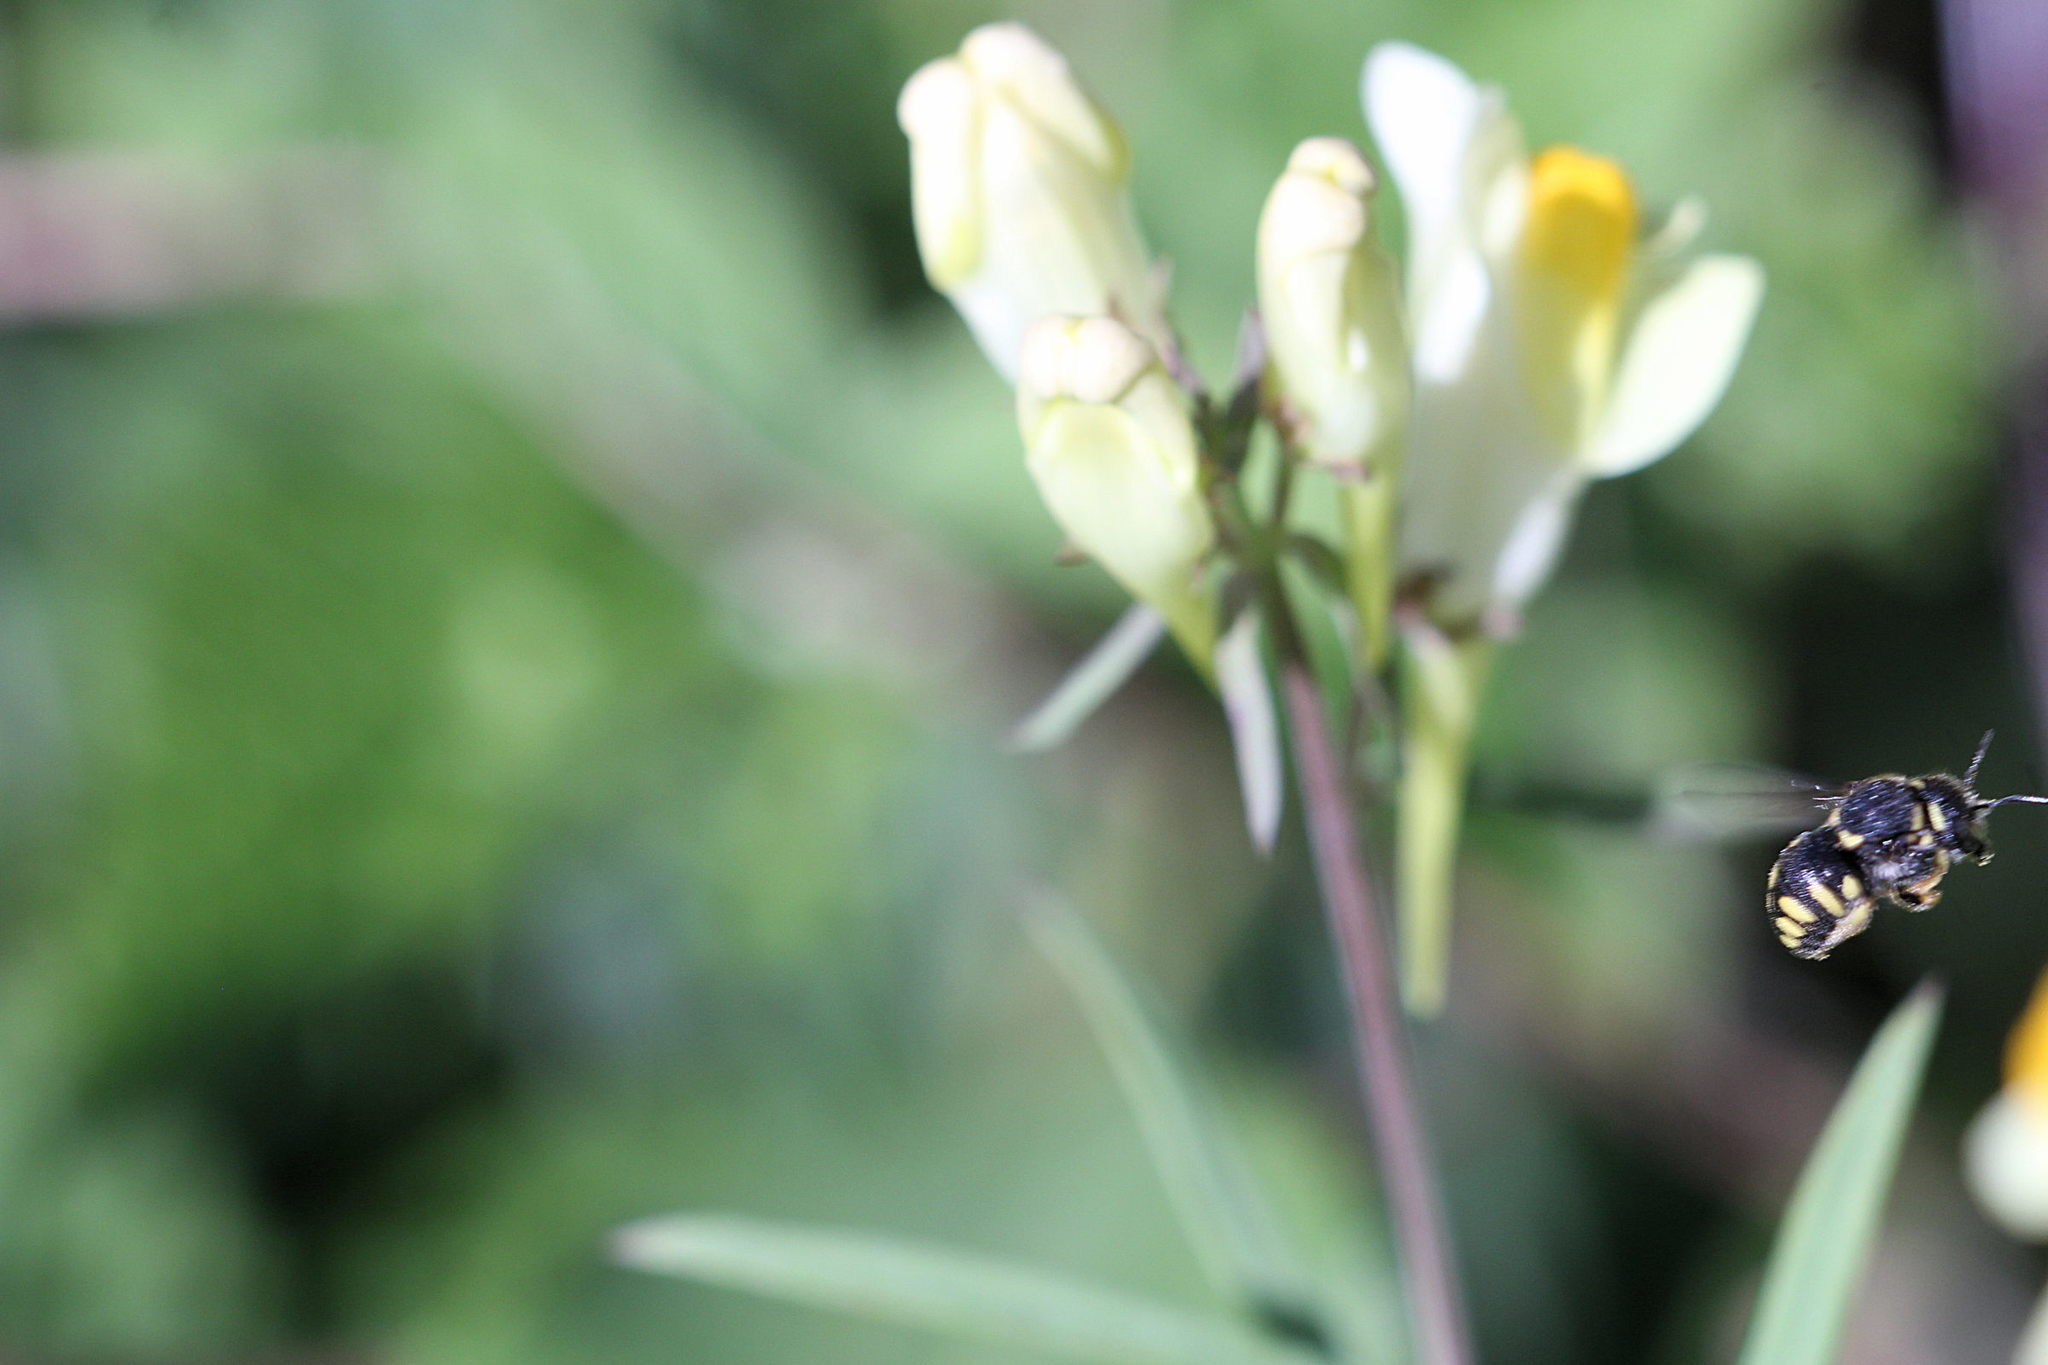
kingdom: Animalia
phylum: Arthropoda
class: Insecta
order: Hymenoptera
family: Megachilidae
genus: Anthidiellum
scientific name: Anthidiellum strigatum
